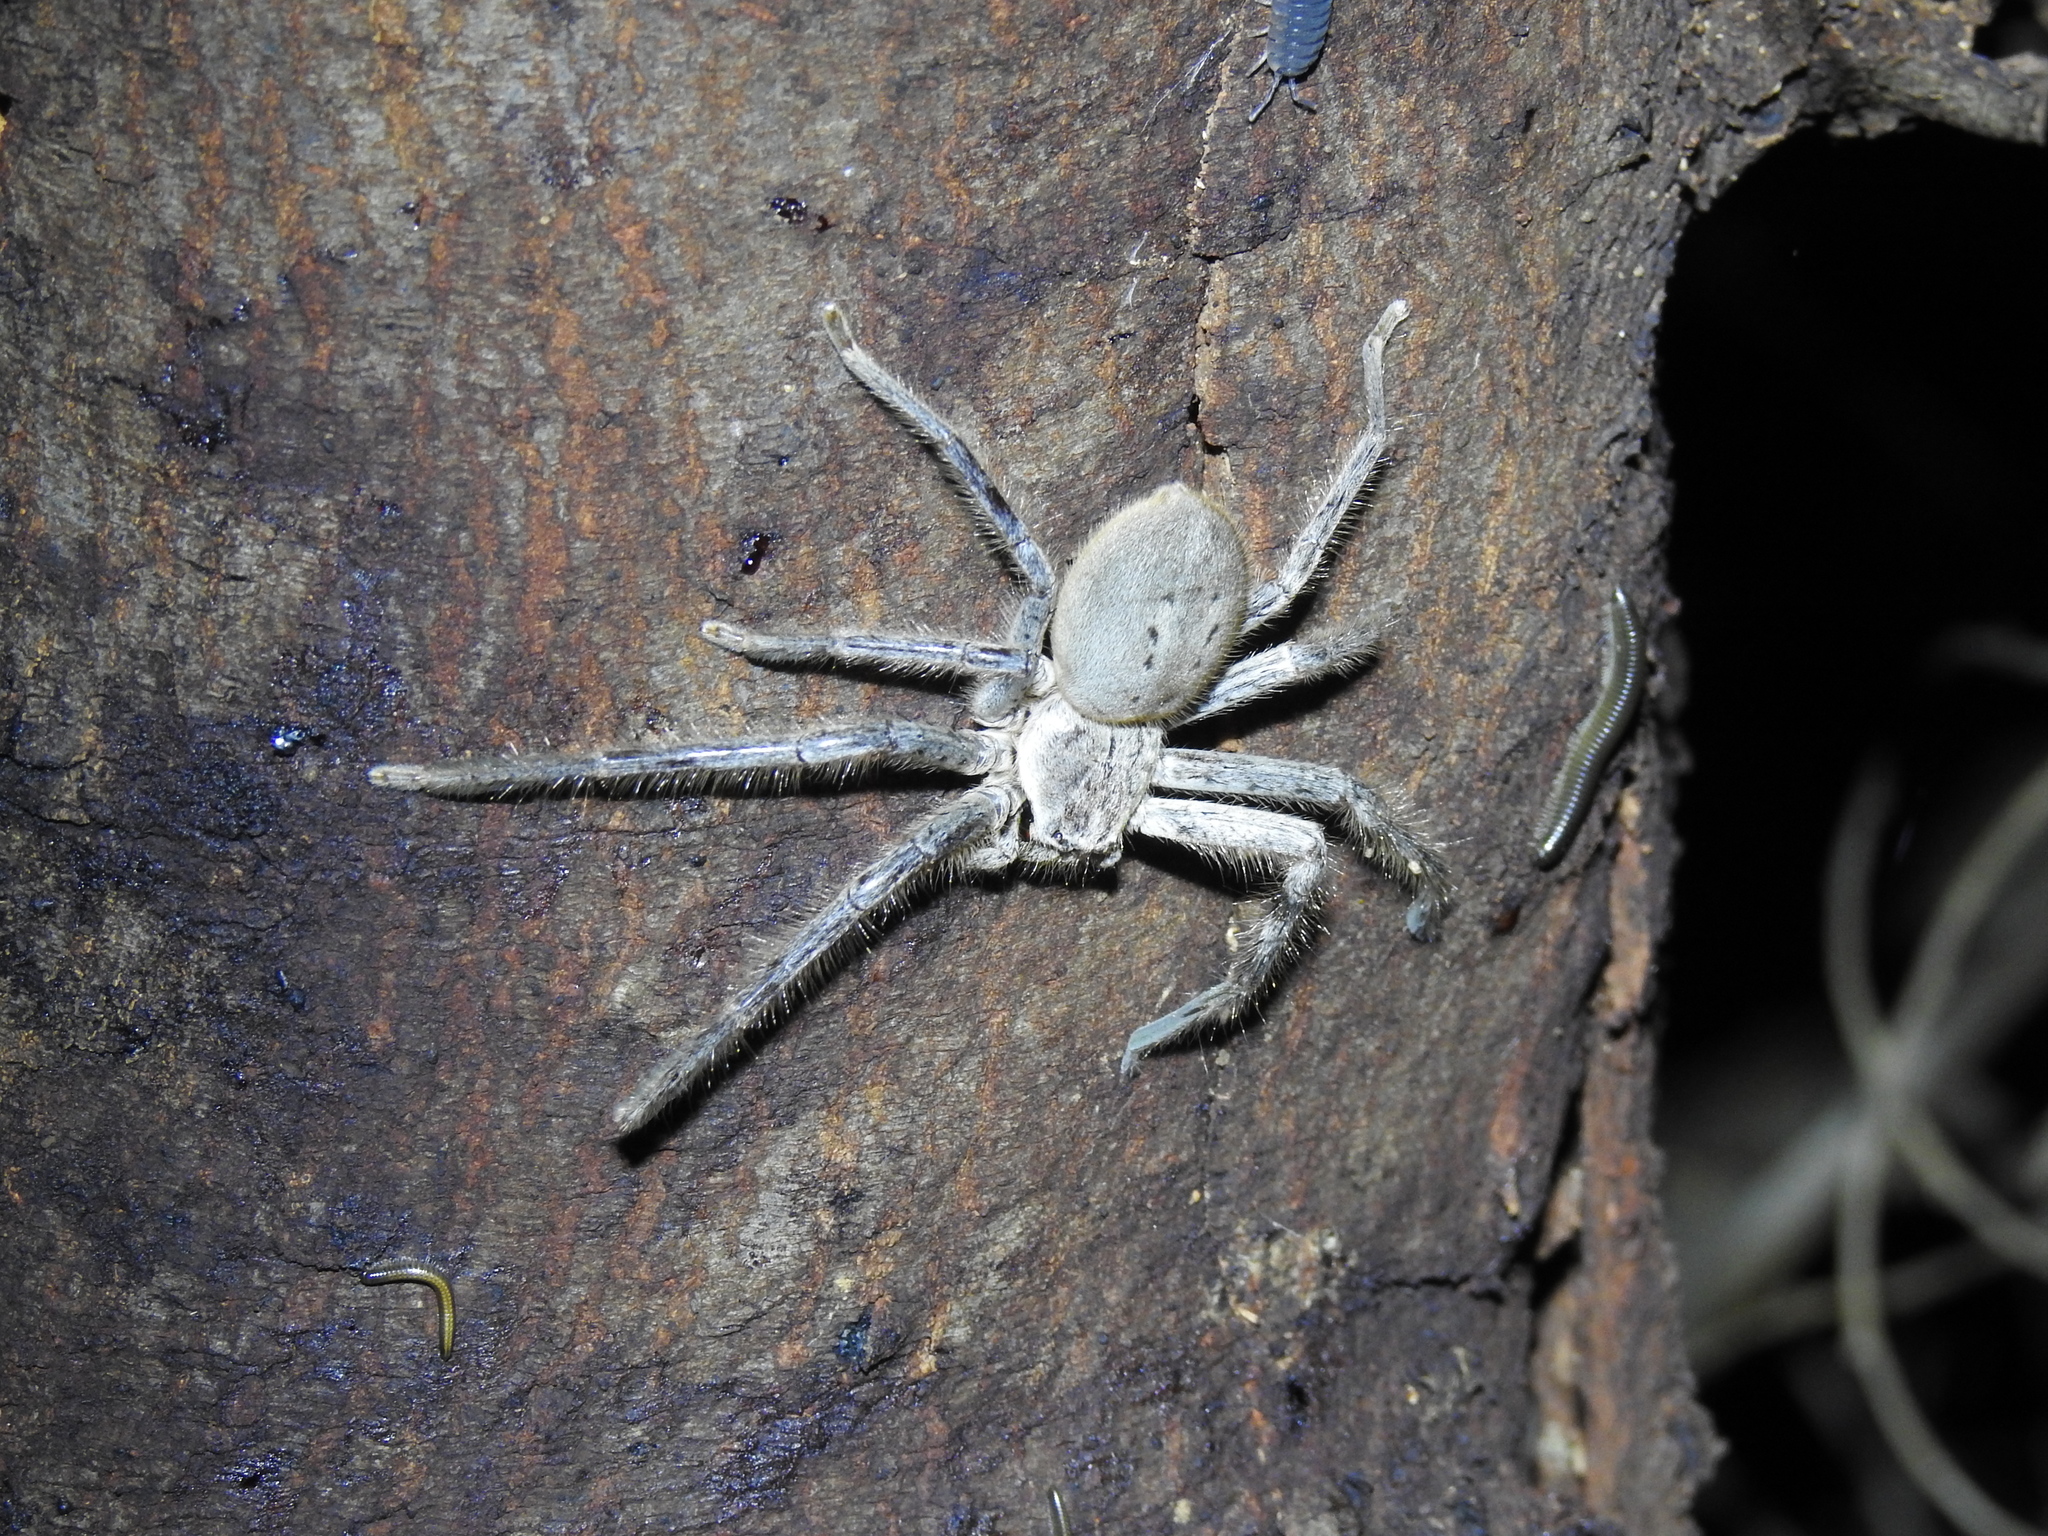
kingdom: Animalia
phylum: Arthropoda
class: Arachnida
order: Araneae
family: Sparassidae
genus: Isopeda
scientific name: Isopeda prolata
